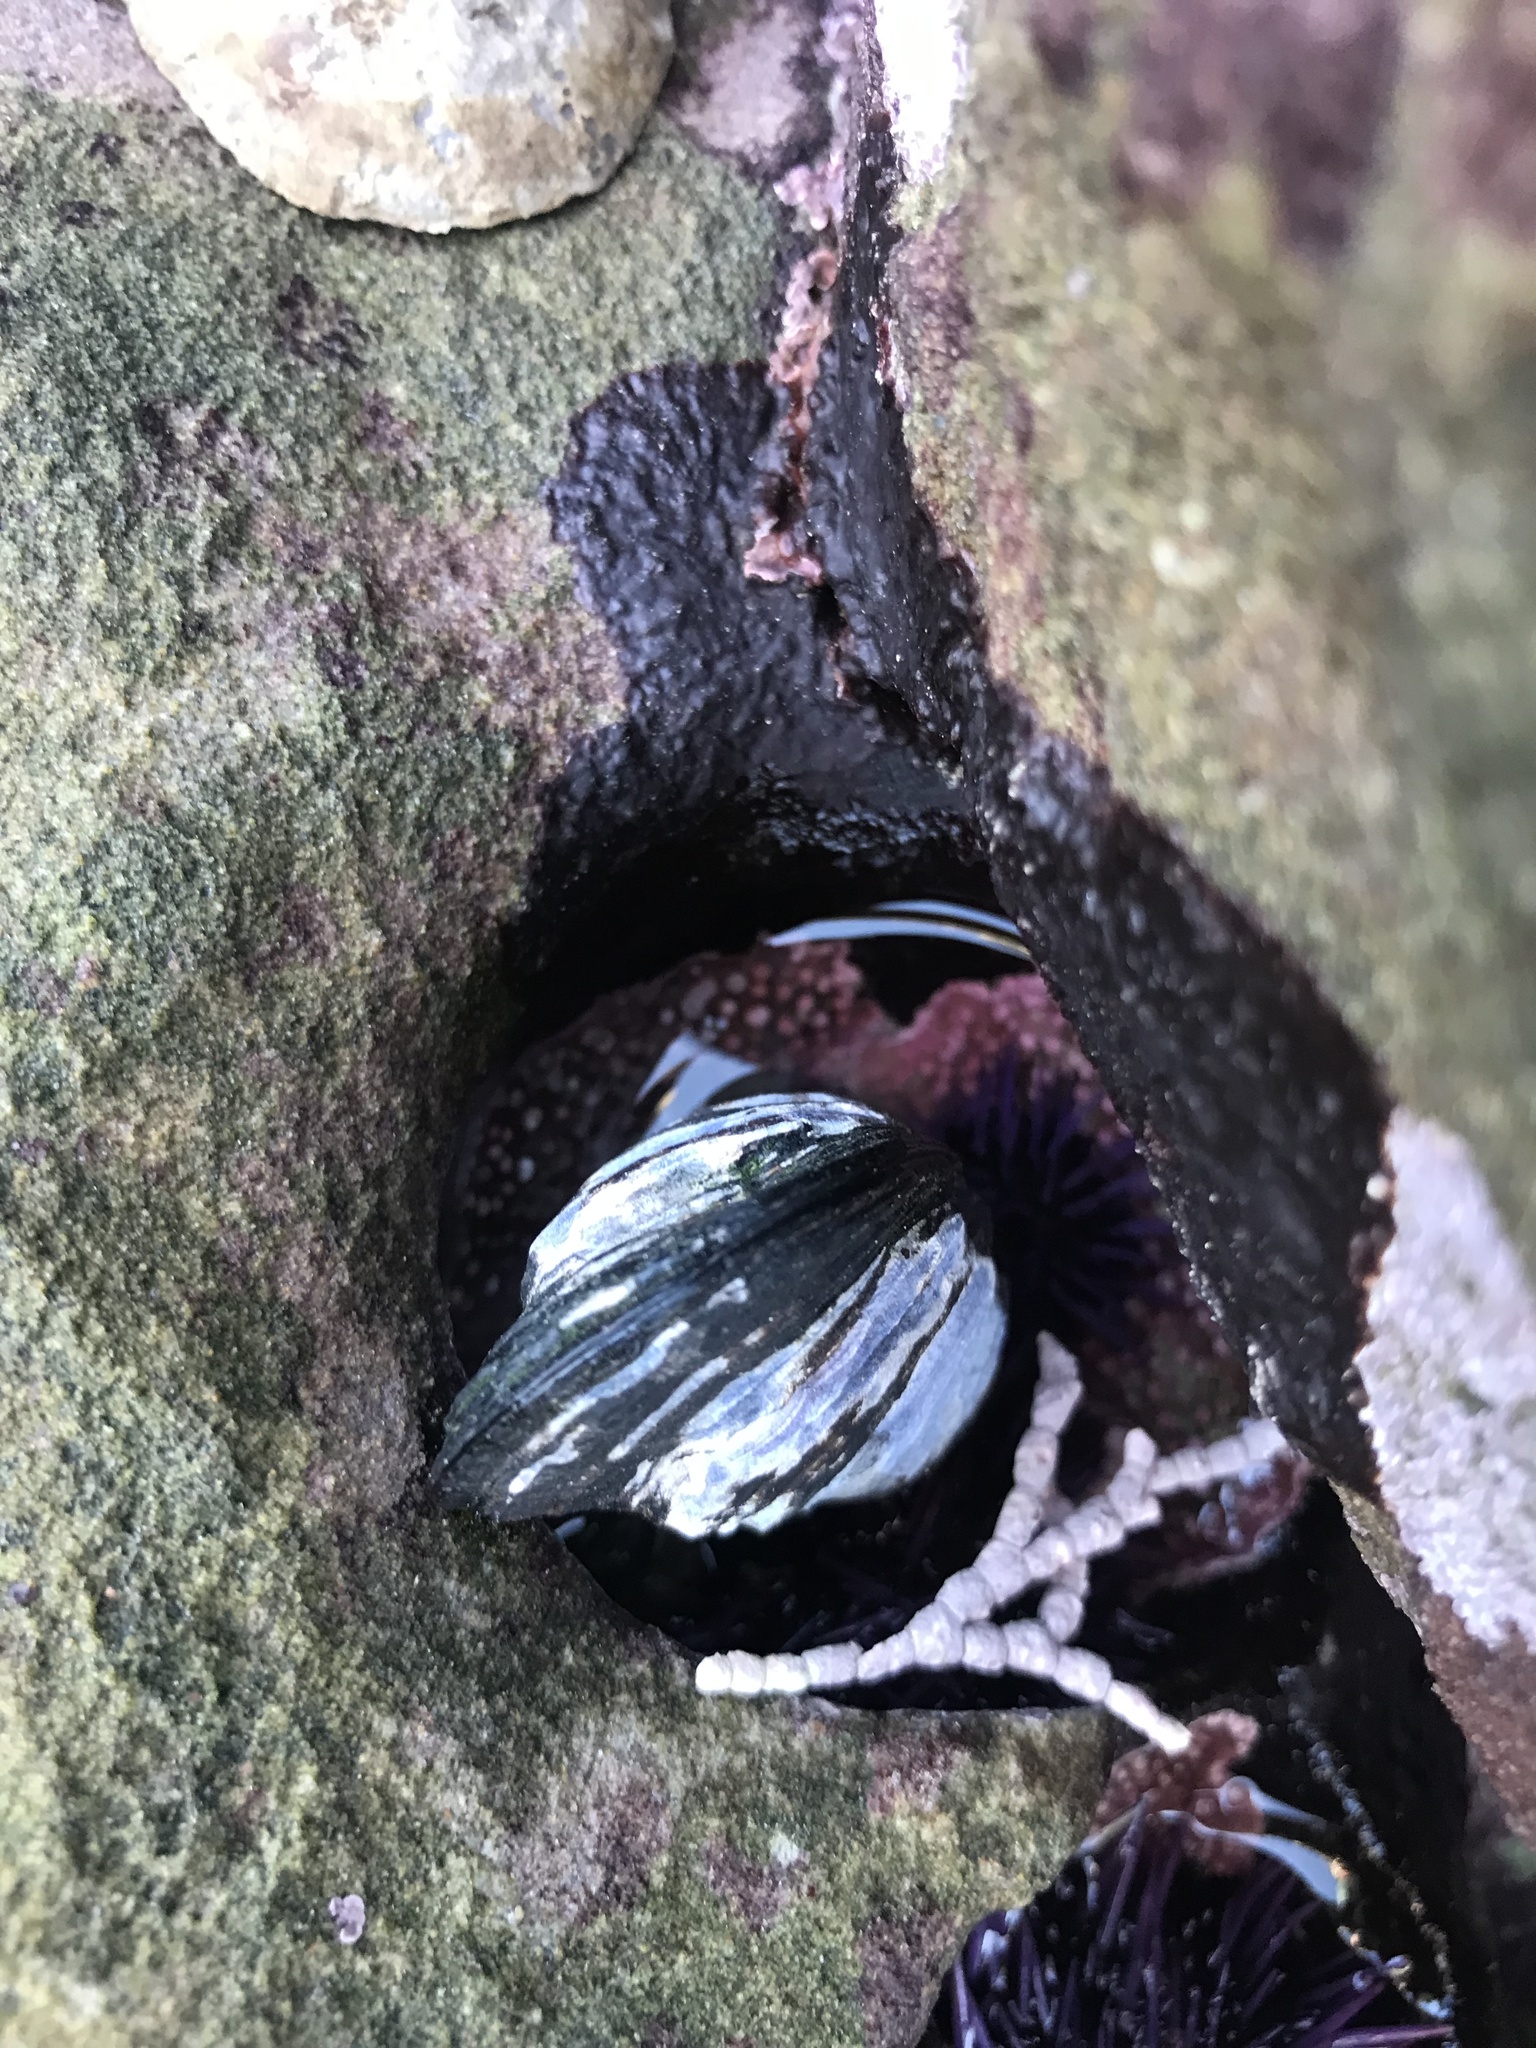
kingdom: Animalia
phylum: Mollusca
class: Bivalvia
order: Mytilida
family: Mytilidae
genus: Mytilus
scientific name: Mytilus californianus
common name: California mussel
